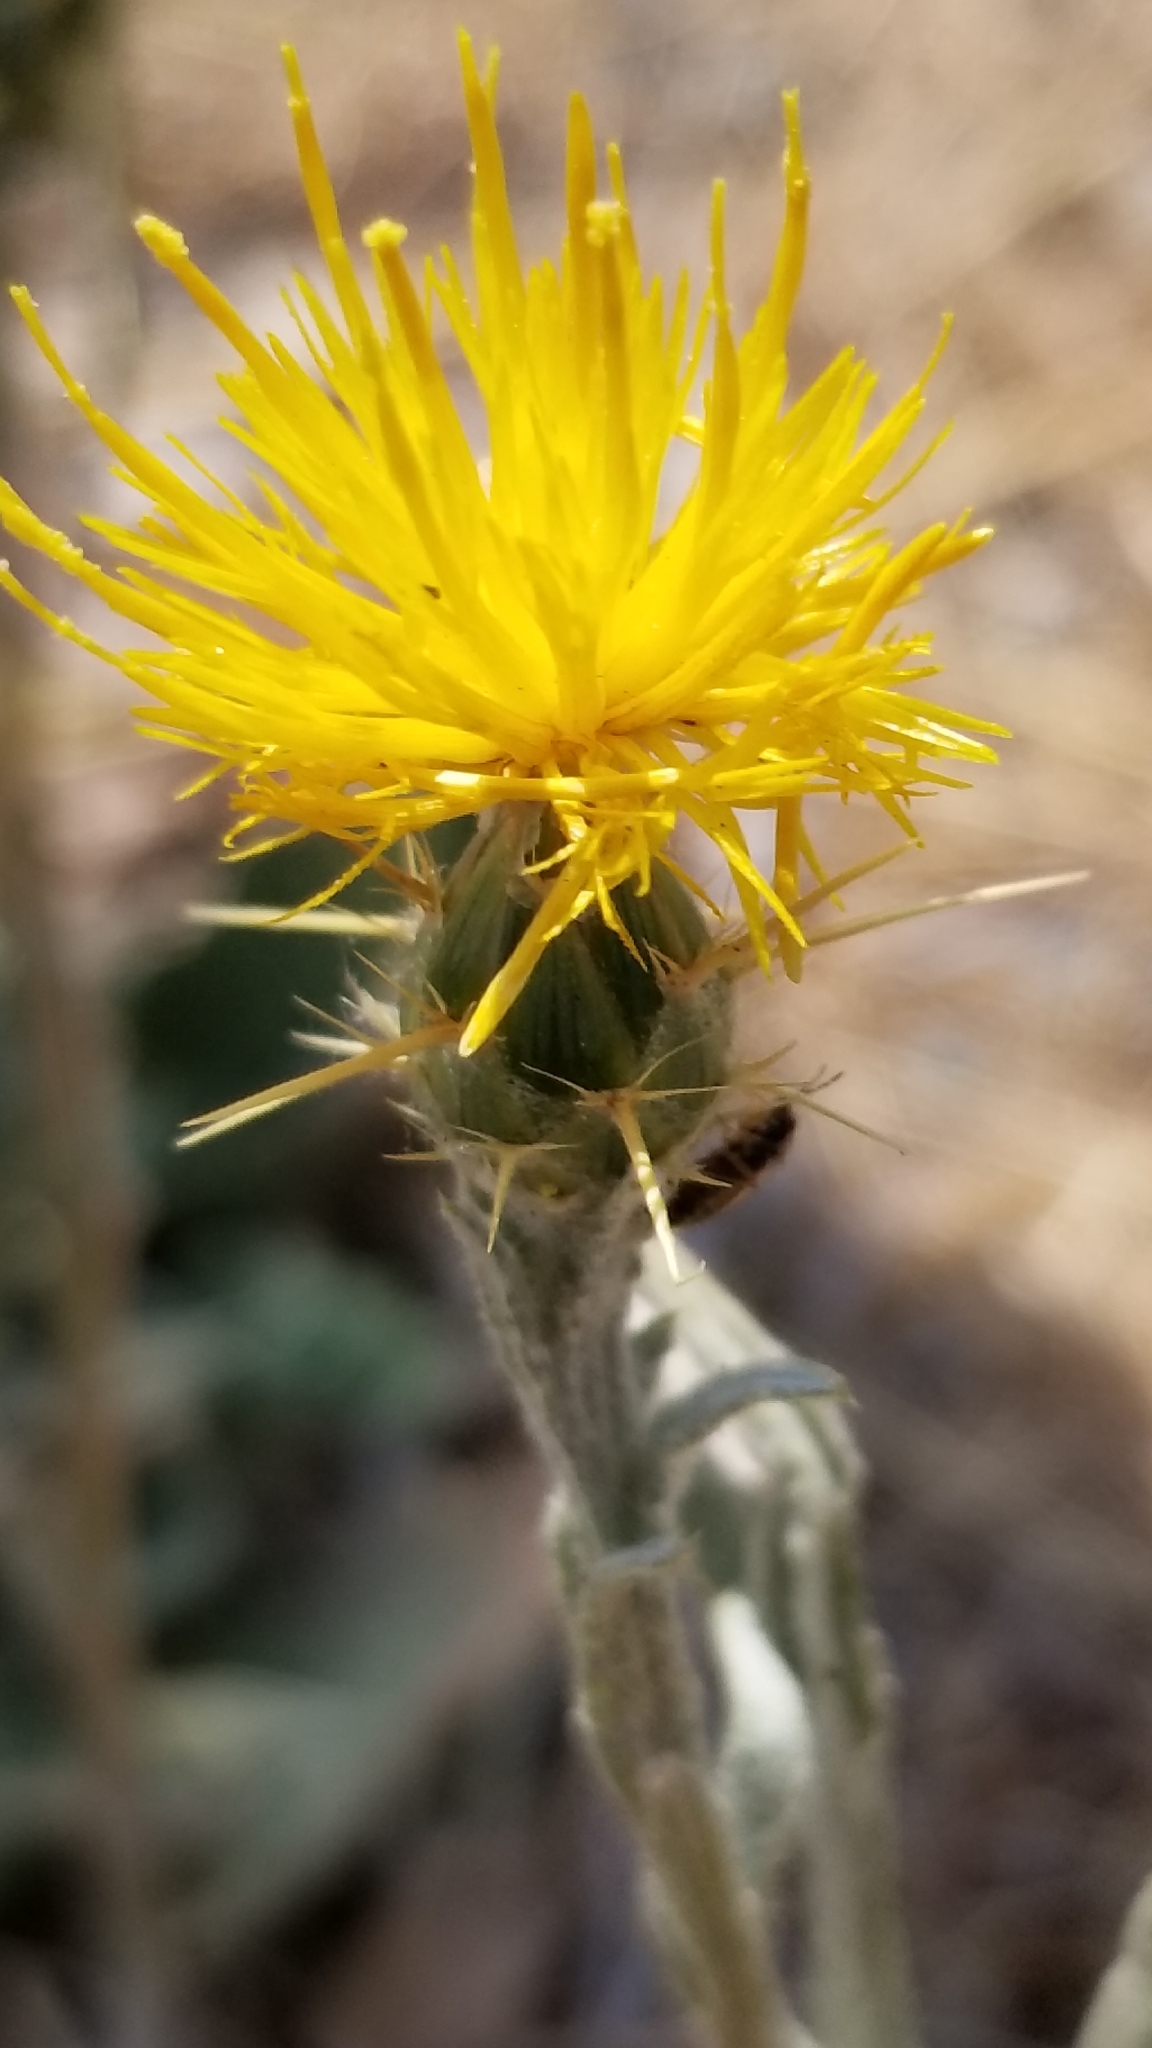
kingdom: Plantae
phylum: Tracheophyta
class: Magnoliopsida
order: Asterales
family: Asteraceae
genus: Centaurea
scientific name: Centaurea solstitialis
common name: Yellow star-thistle
